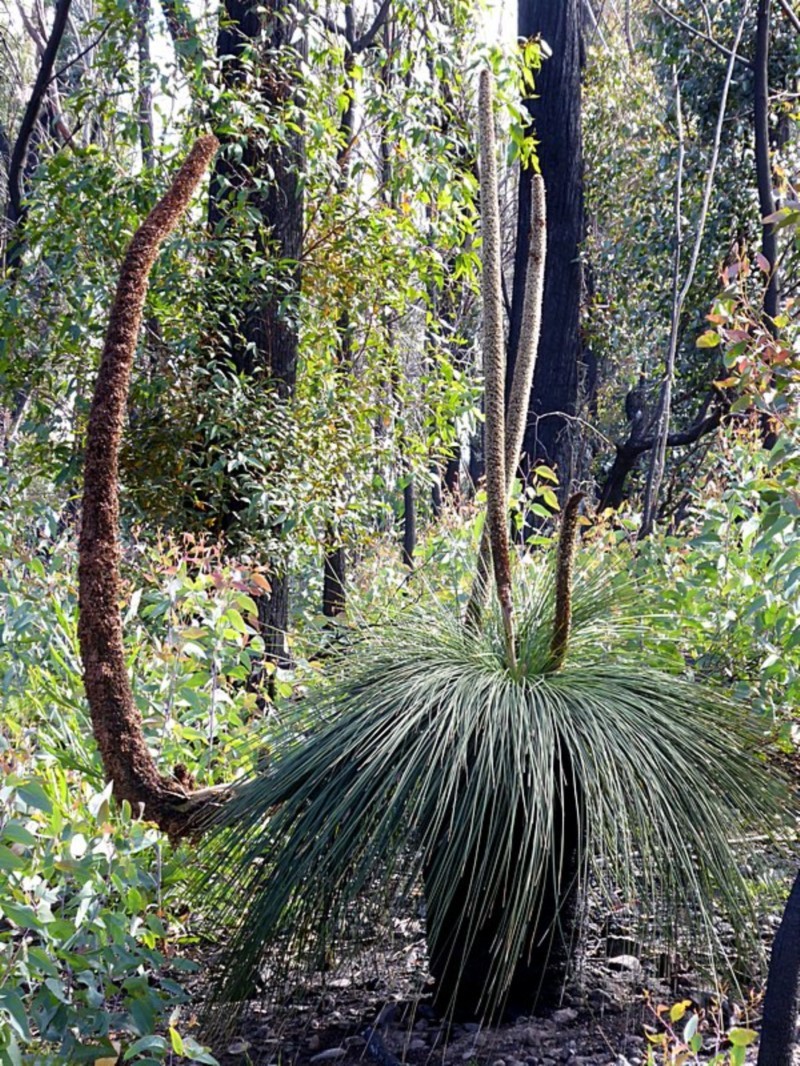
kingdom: Plantae
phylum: Tracheophyta
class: Liliopsida
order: Asparagales
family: Asphodelaceae
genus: Xanthorrhoea
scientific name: Xanthorrhoea australis
